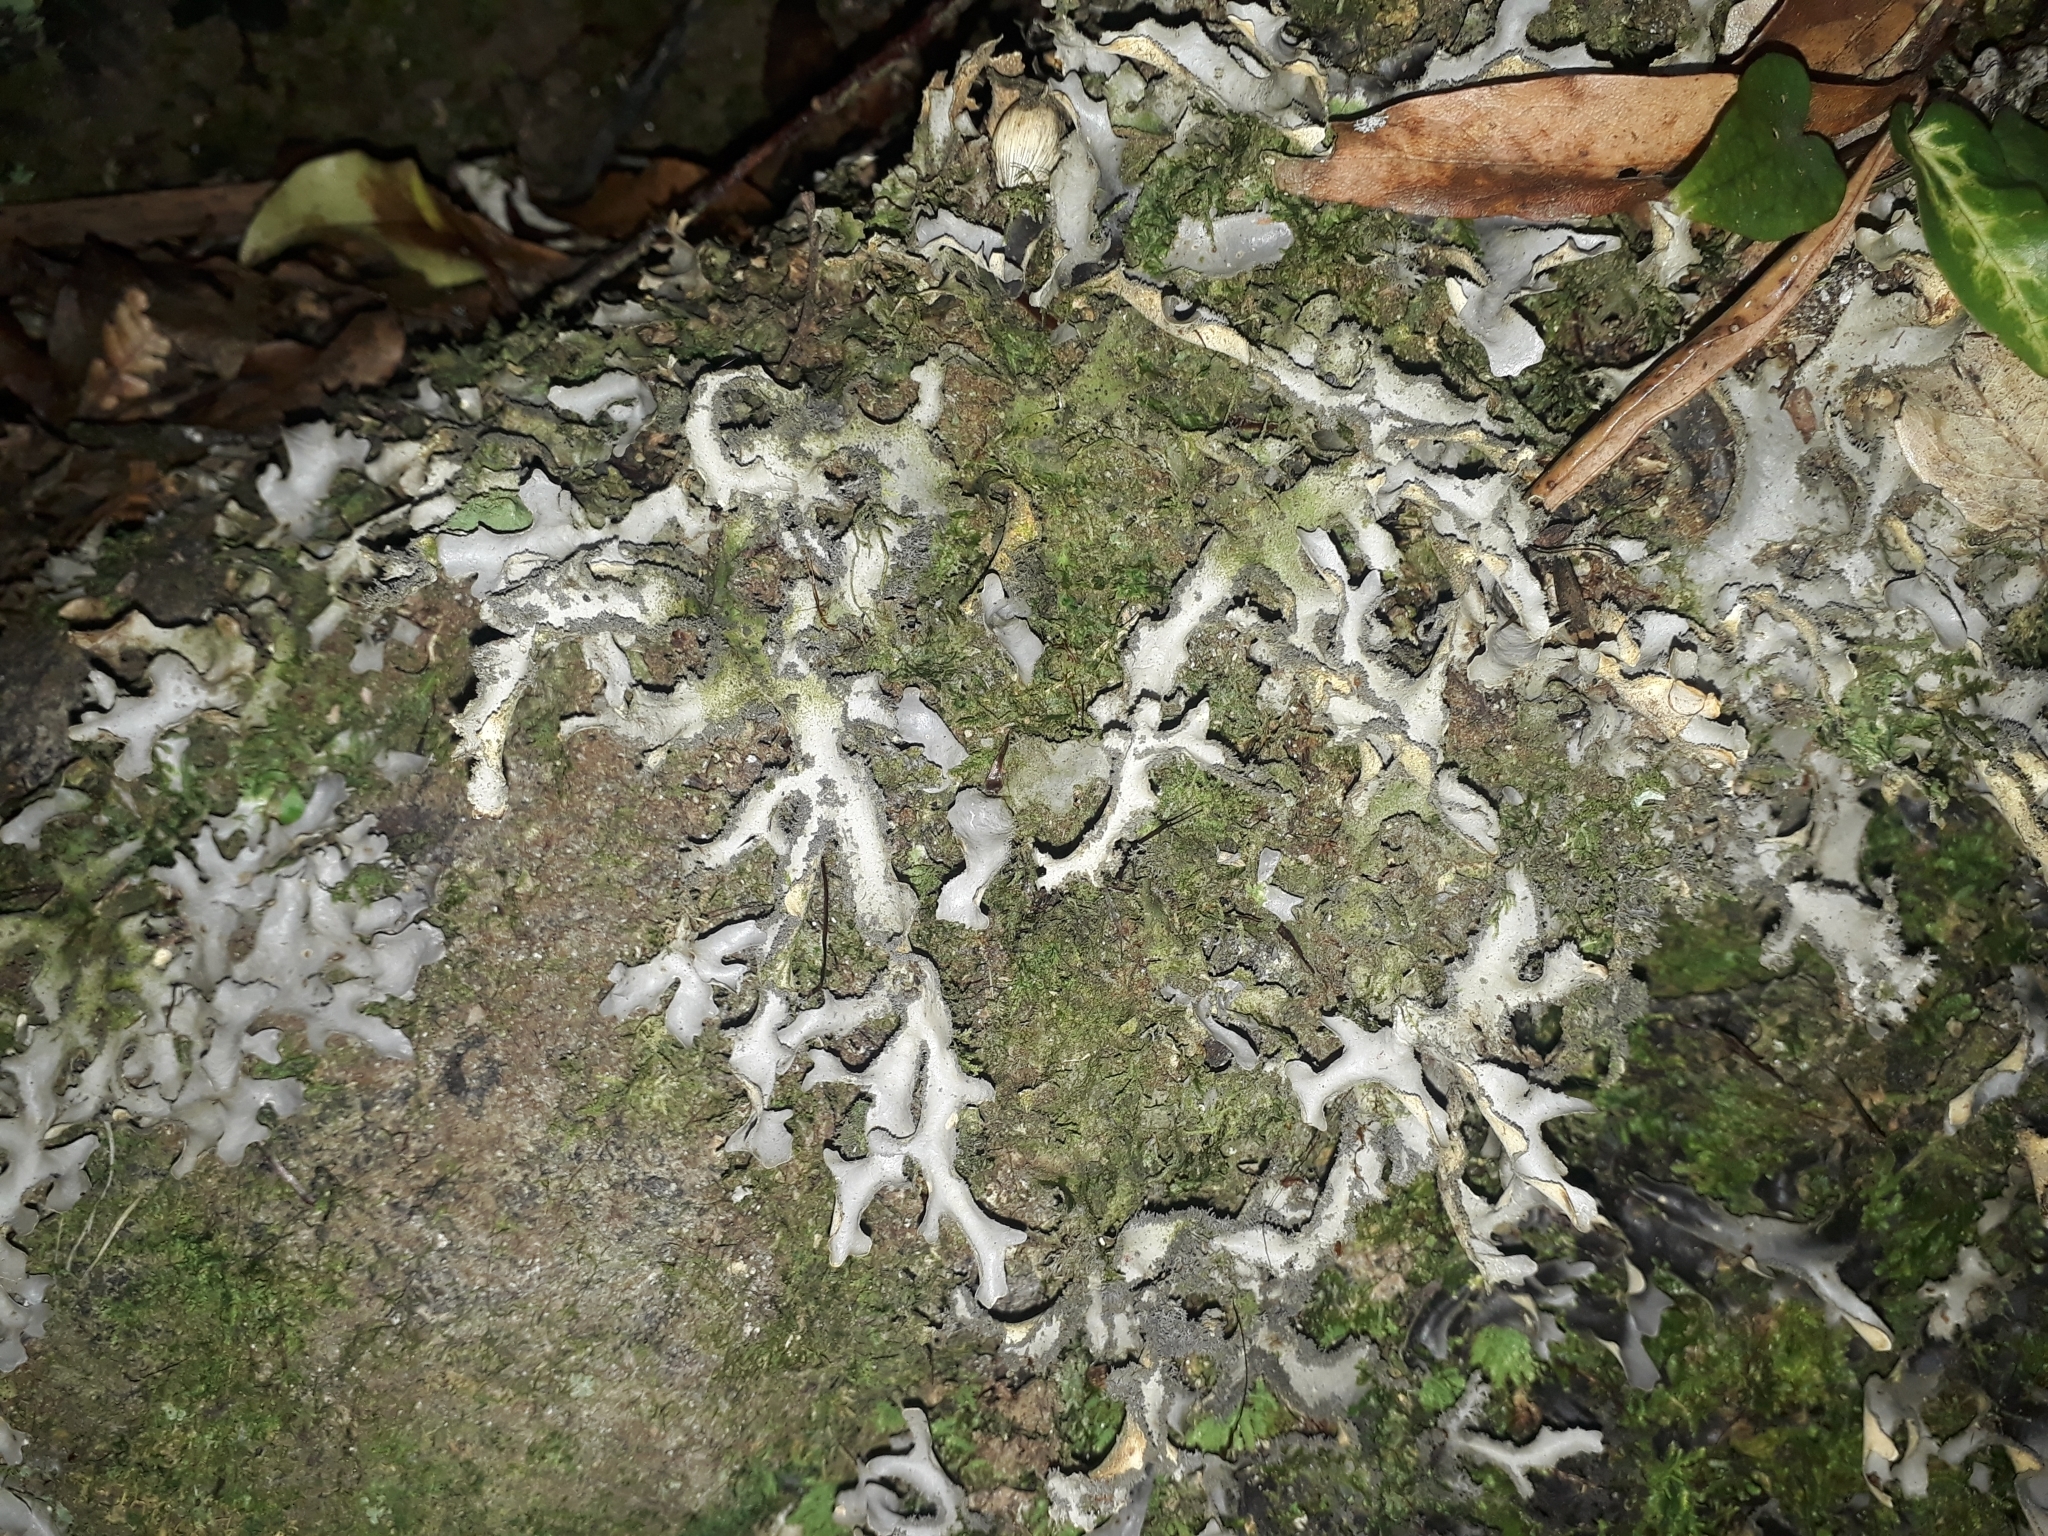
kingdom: Fungi
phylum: Ascomycota
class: Lecanoromycetes
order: Peltigerales
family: Lobariaceae
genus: Pseudocyphellaria
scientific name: Pseudocyphellaria dissimilis
